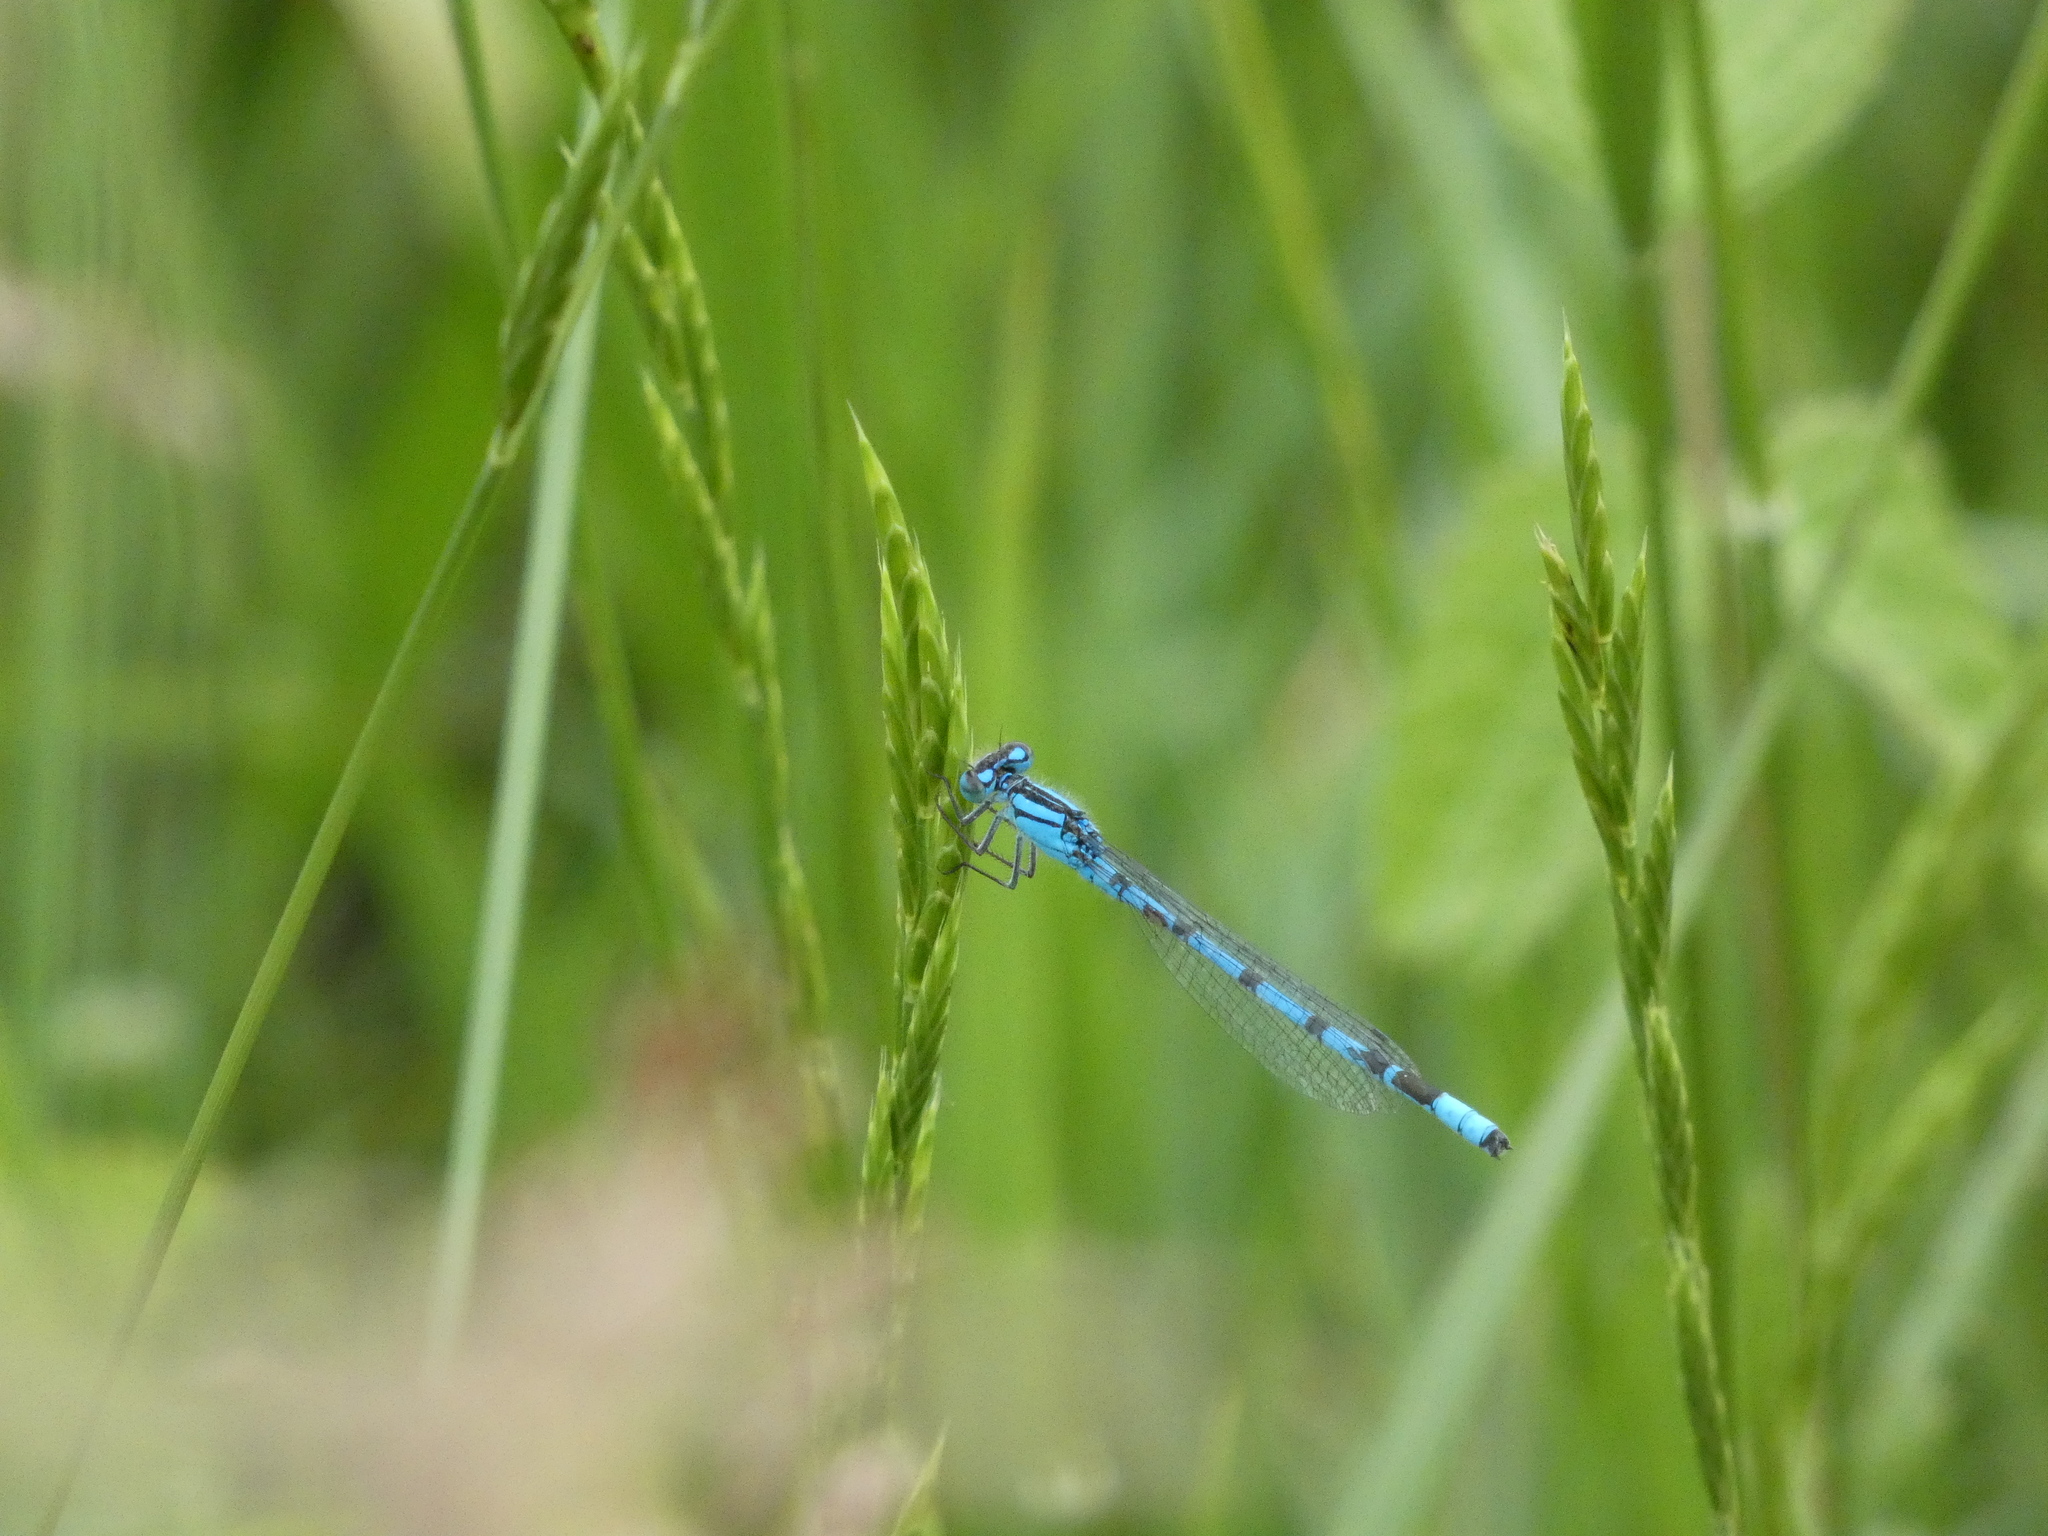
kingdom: Animalia
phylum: Arthropoda
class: Insecta
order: Odonata
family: Coenagrionidae
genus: Enallagma
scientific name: Enallagma cyathigerum
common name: Common blue damselfly
